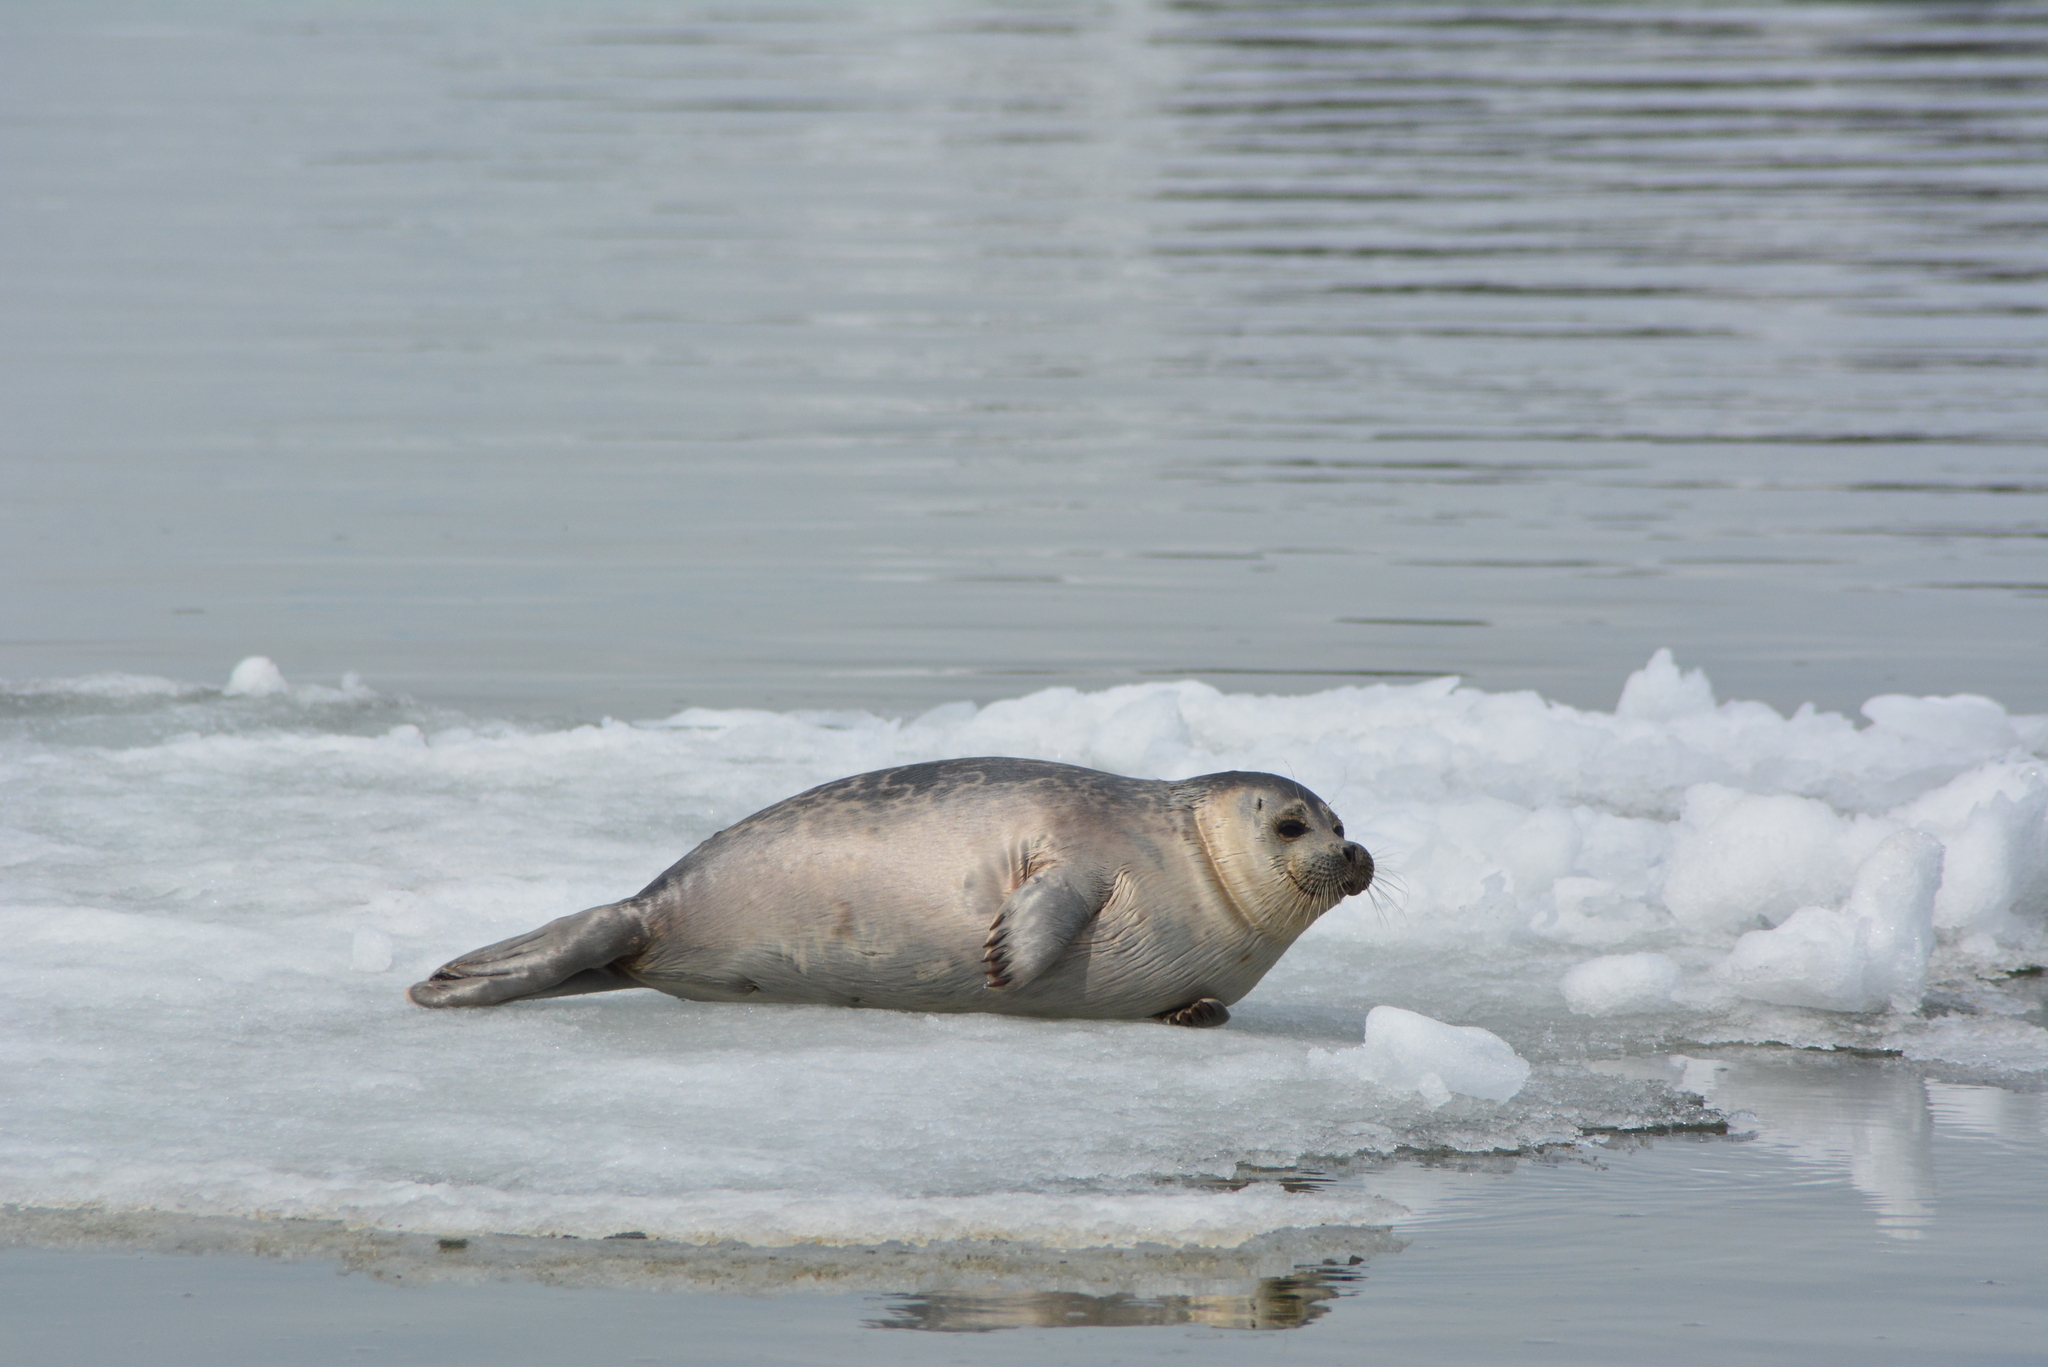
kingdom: Animalia
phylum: Chordata
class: Mammalia
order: Carnivora
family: Phocidae
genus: Pusa
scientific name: Pusa hispida
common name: Ringed seal
